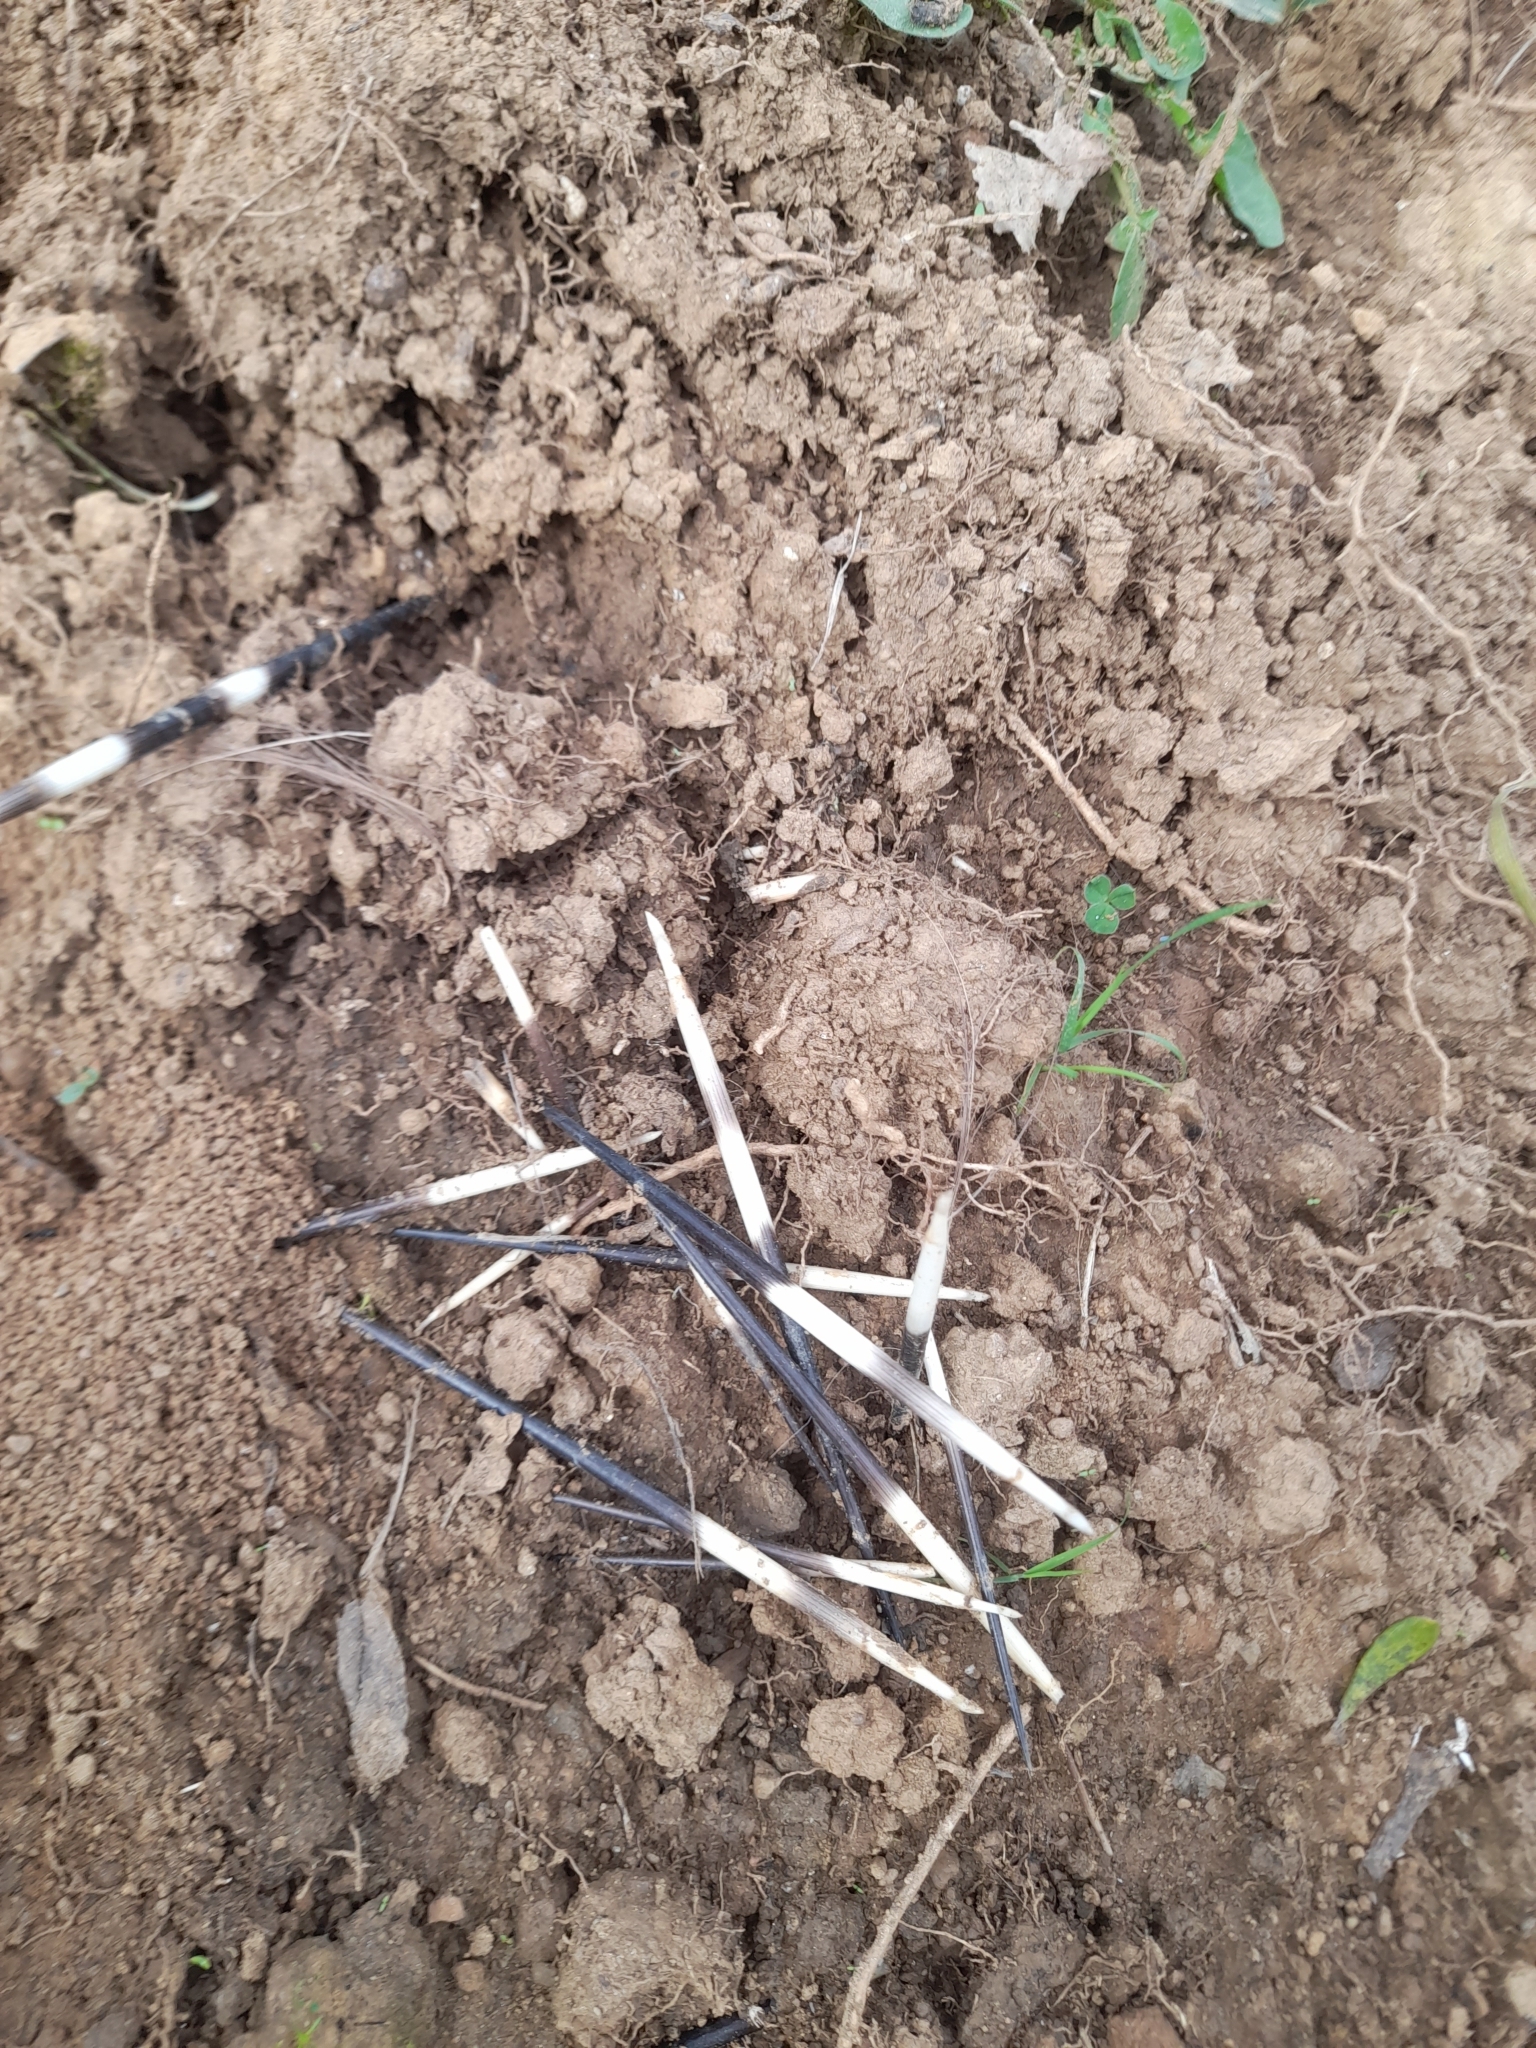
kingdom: Animalia
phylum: Chordata
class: Mammalia
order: Rodentia
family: Hystricidae
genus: Hystrix
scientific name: Hystrix cristata
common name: Crested porcupine
